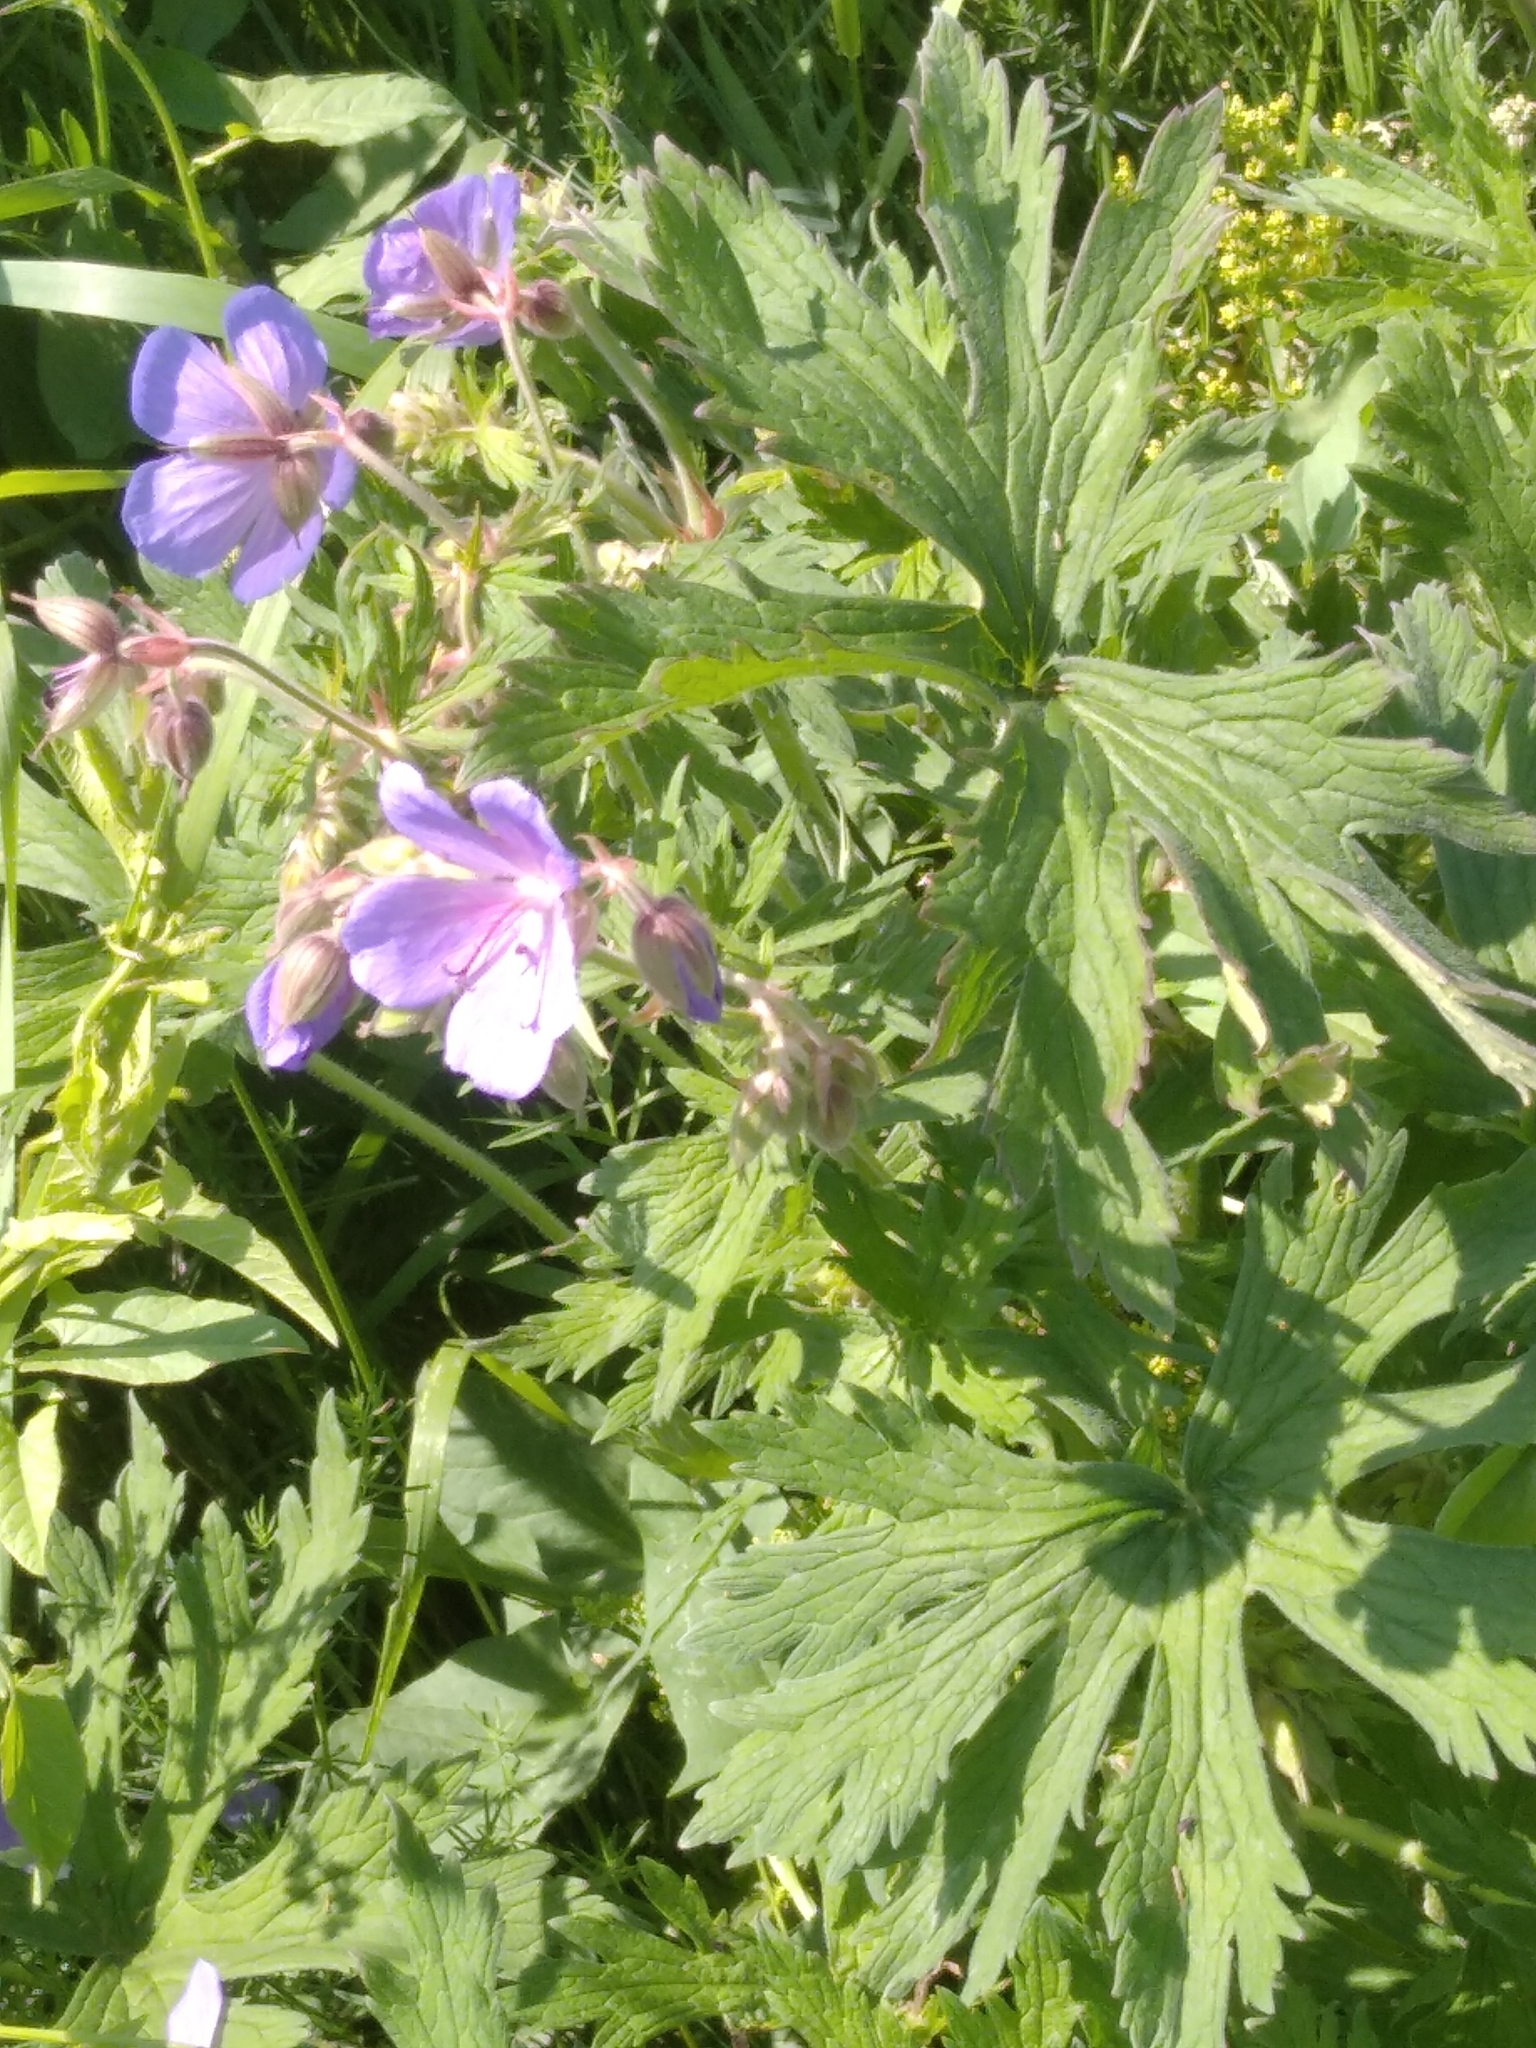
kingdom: Plantae
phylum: Tracheophyta
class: Magnoliopsida
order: Geraniales
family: Geraniaceae
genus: Geranium
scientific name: Geranium pratense
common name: Meadow crane's-bill
